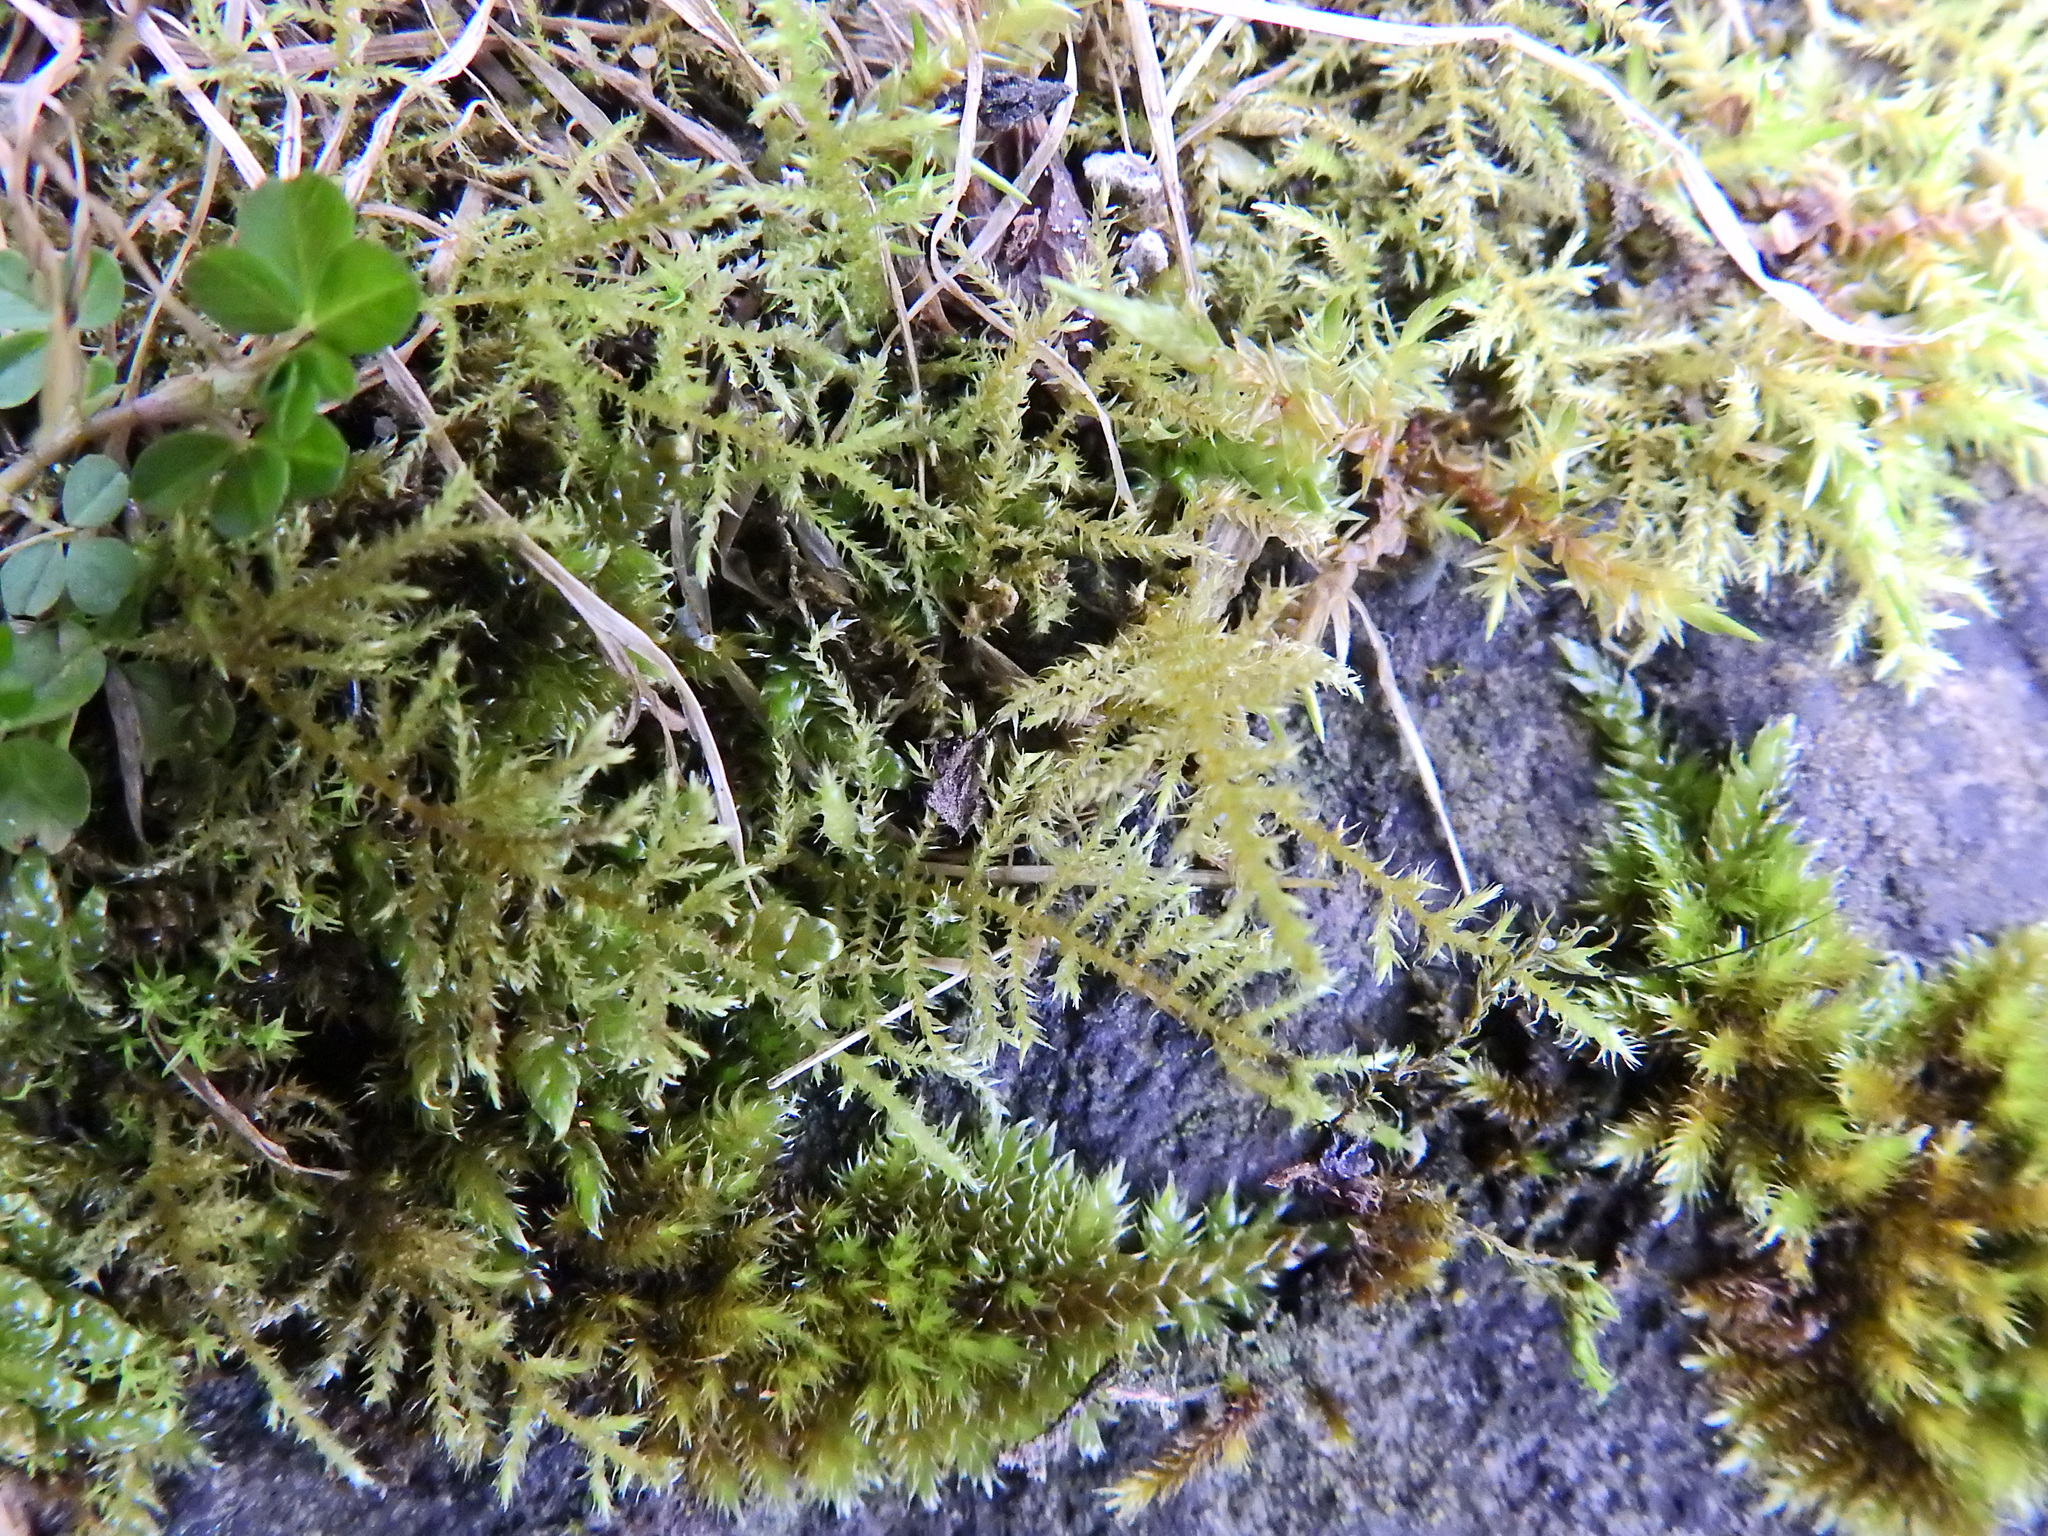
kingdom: Plantae
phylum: Bryophyta
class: Bryopsida
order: Hypnales
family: Brachytheciaceae
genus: Kindbergia
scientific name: Kindbergia praelonga
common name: Slender beaked moss
